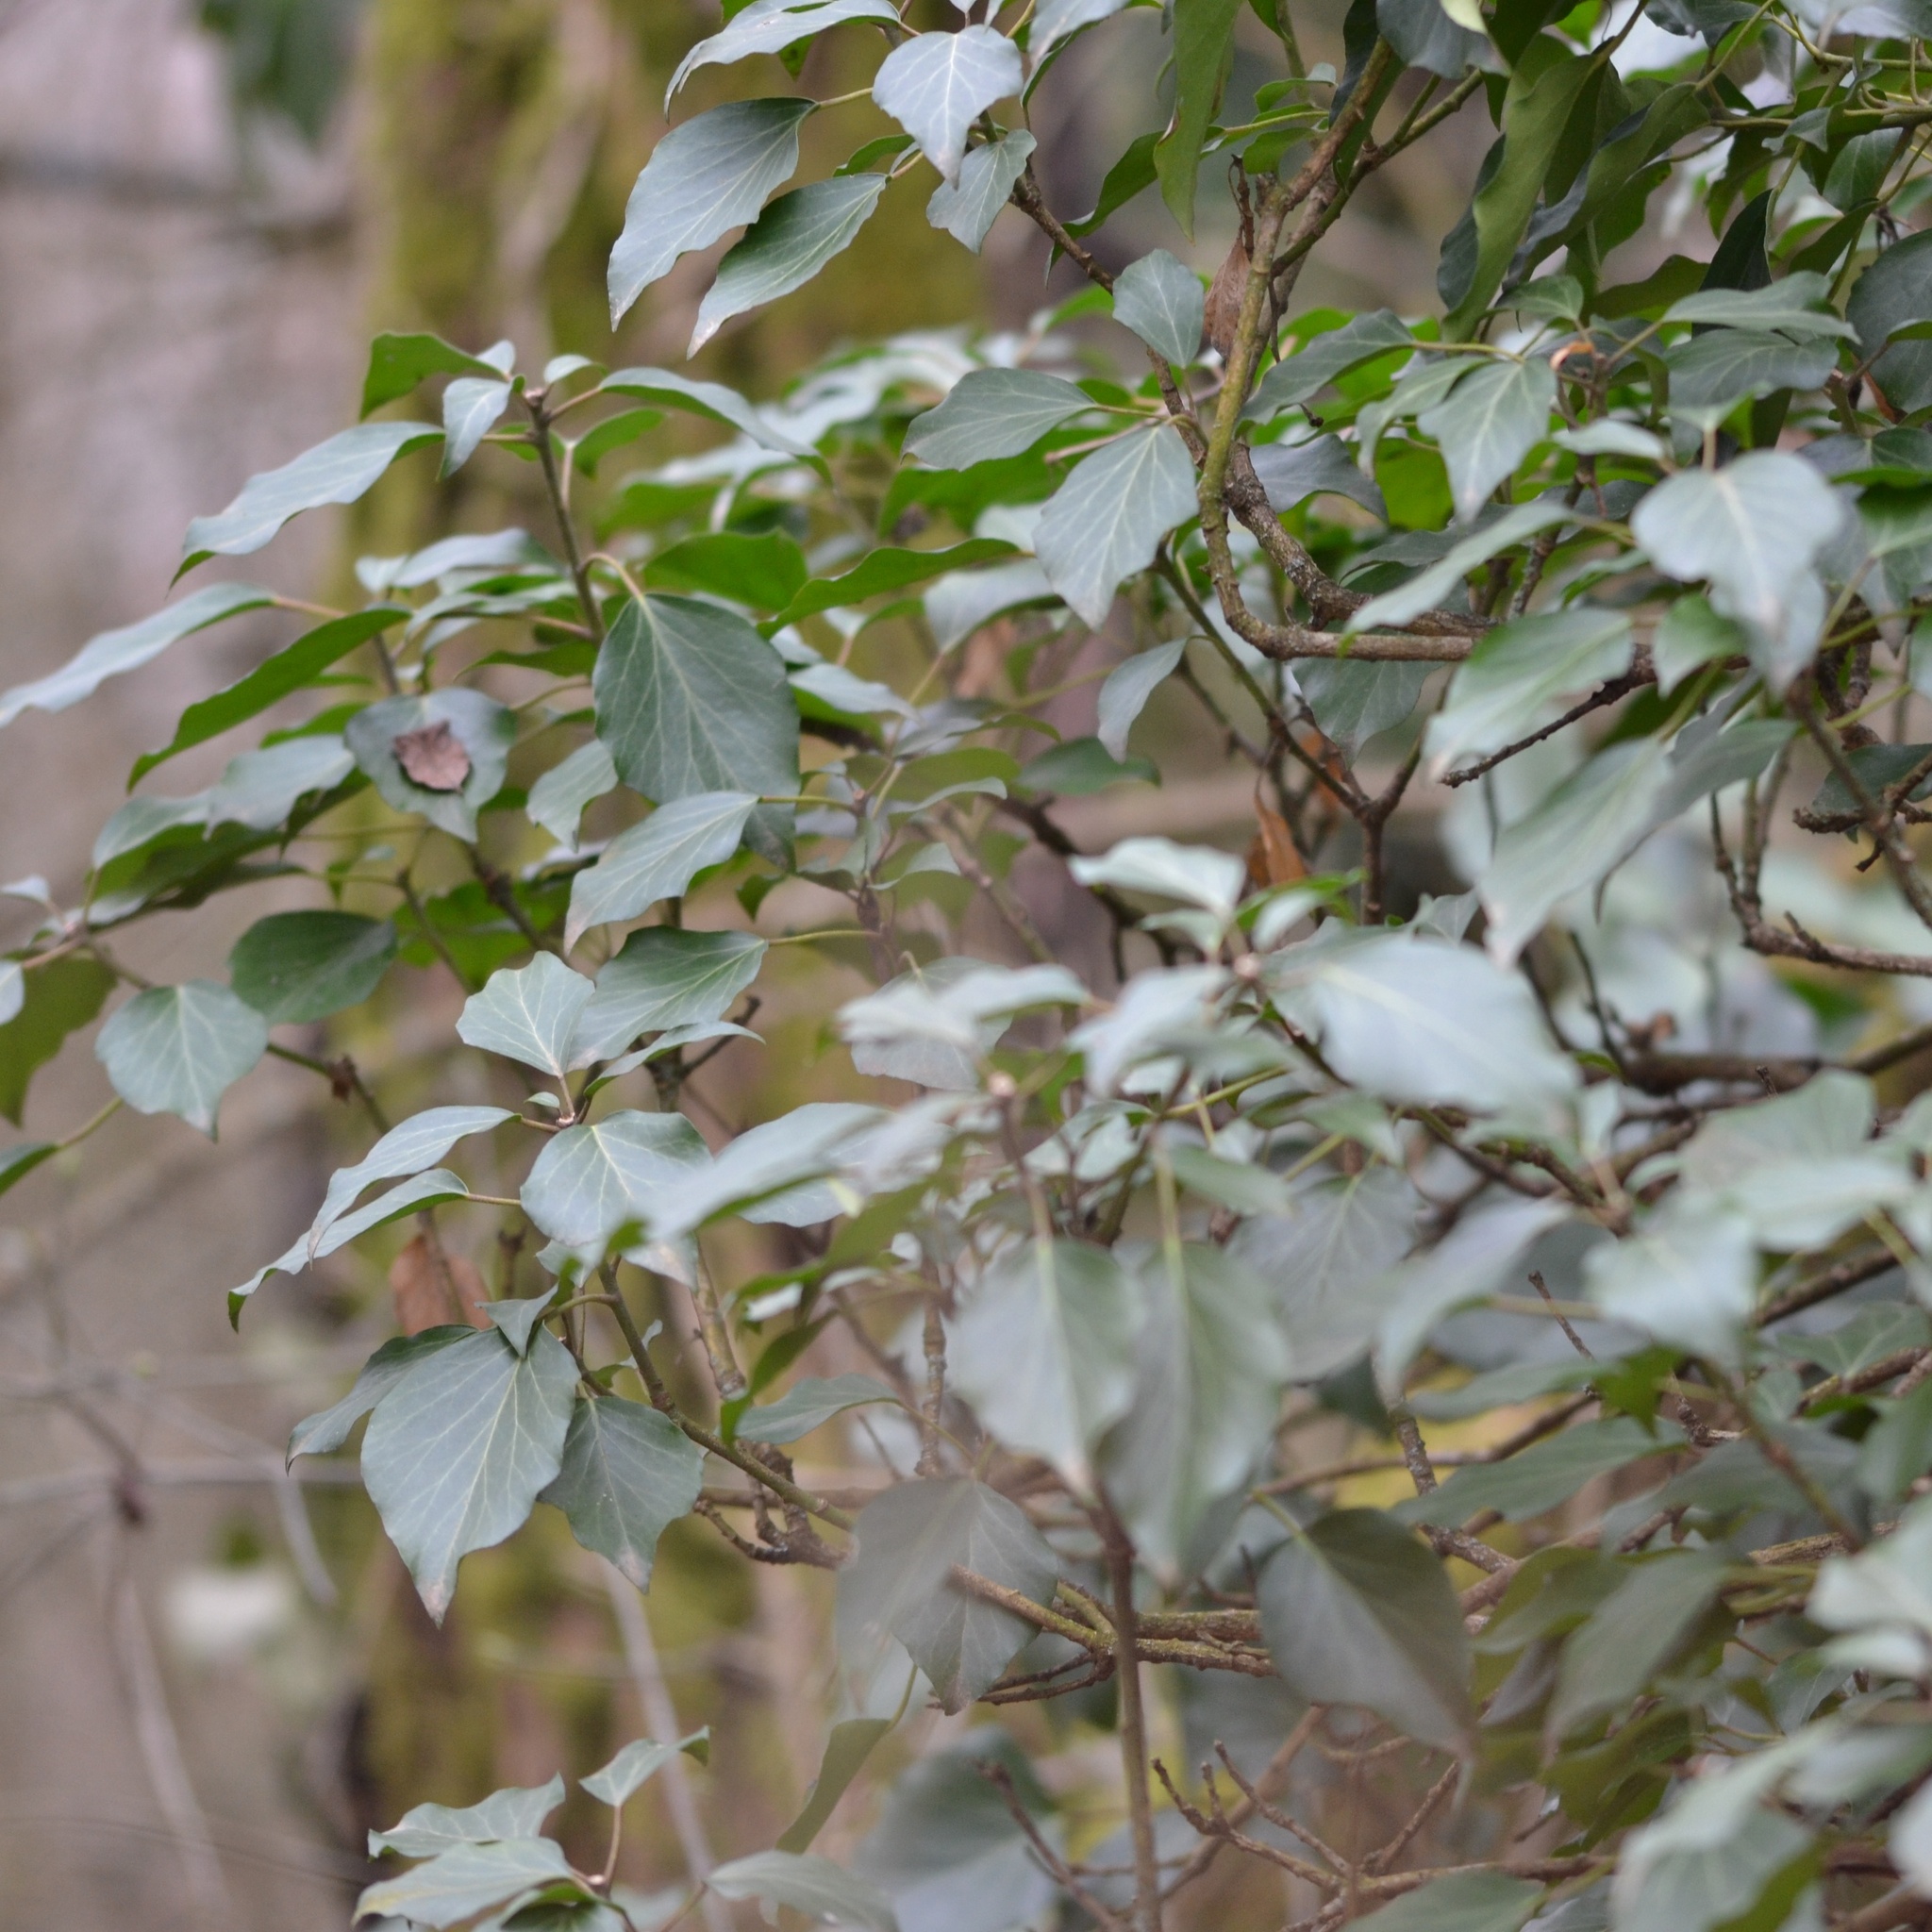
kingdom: Plantae
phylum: Tracheophyta
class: Magnoliopsida
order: Apiales
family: Araliaceae
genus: Hedera
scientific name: Hedera helix
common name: Ivy
